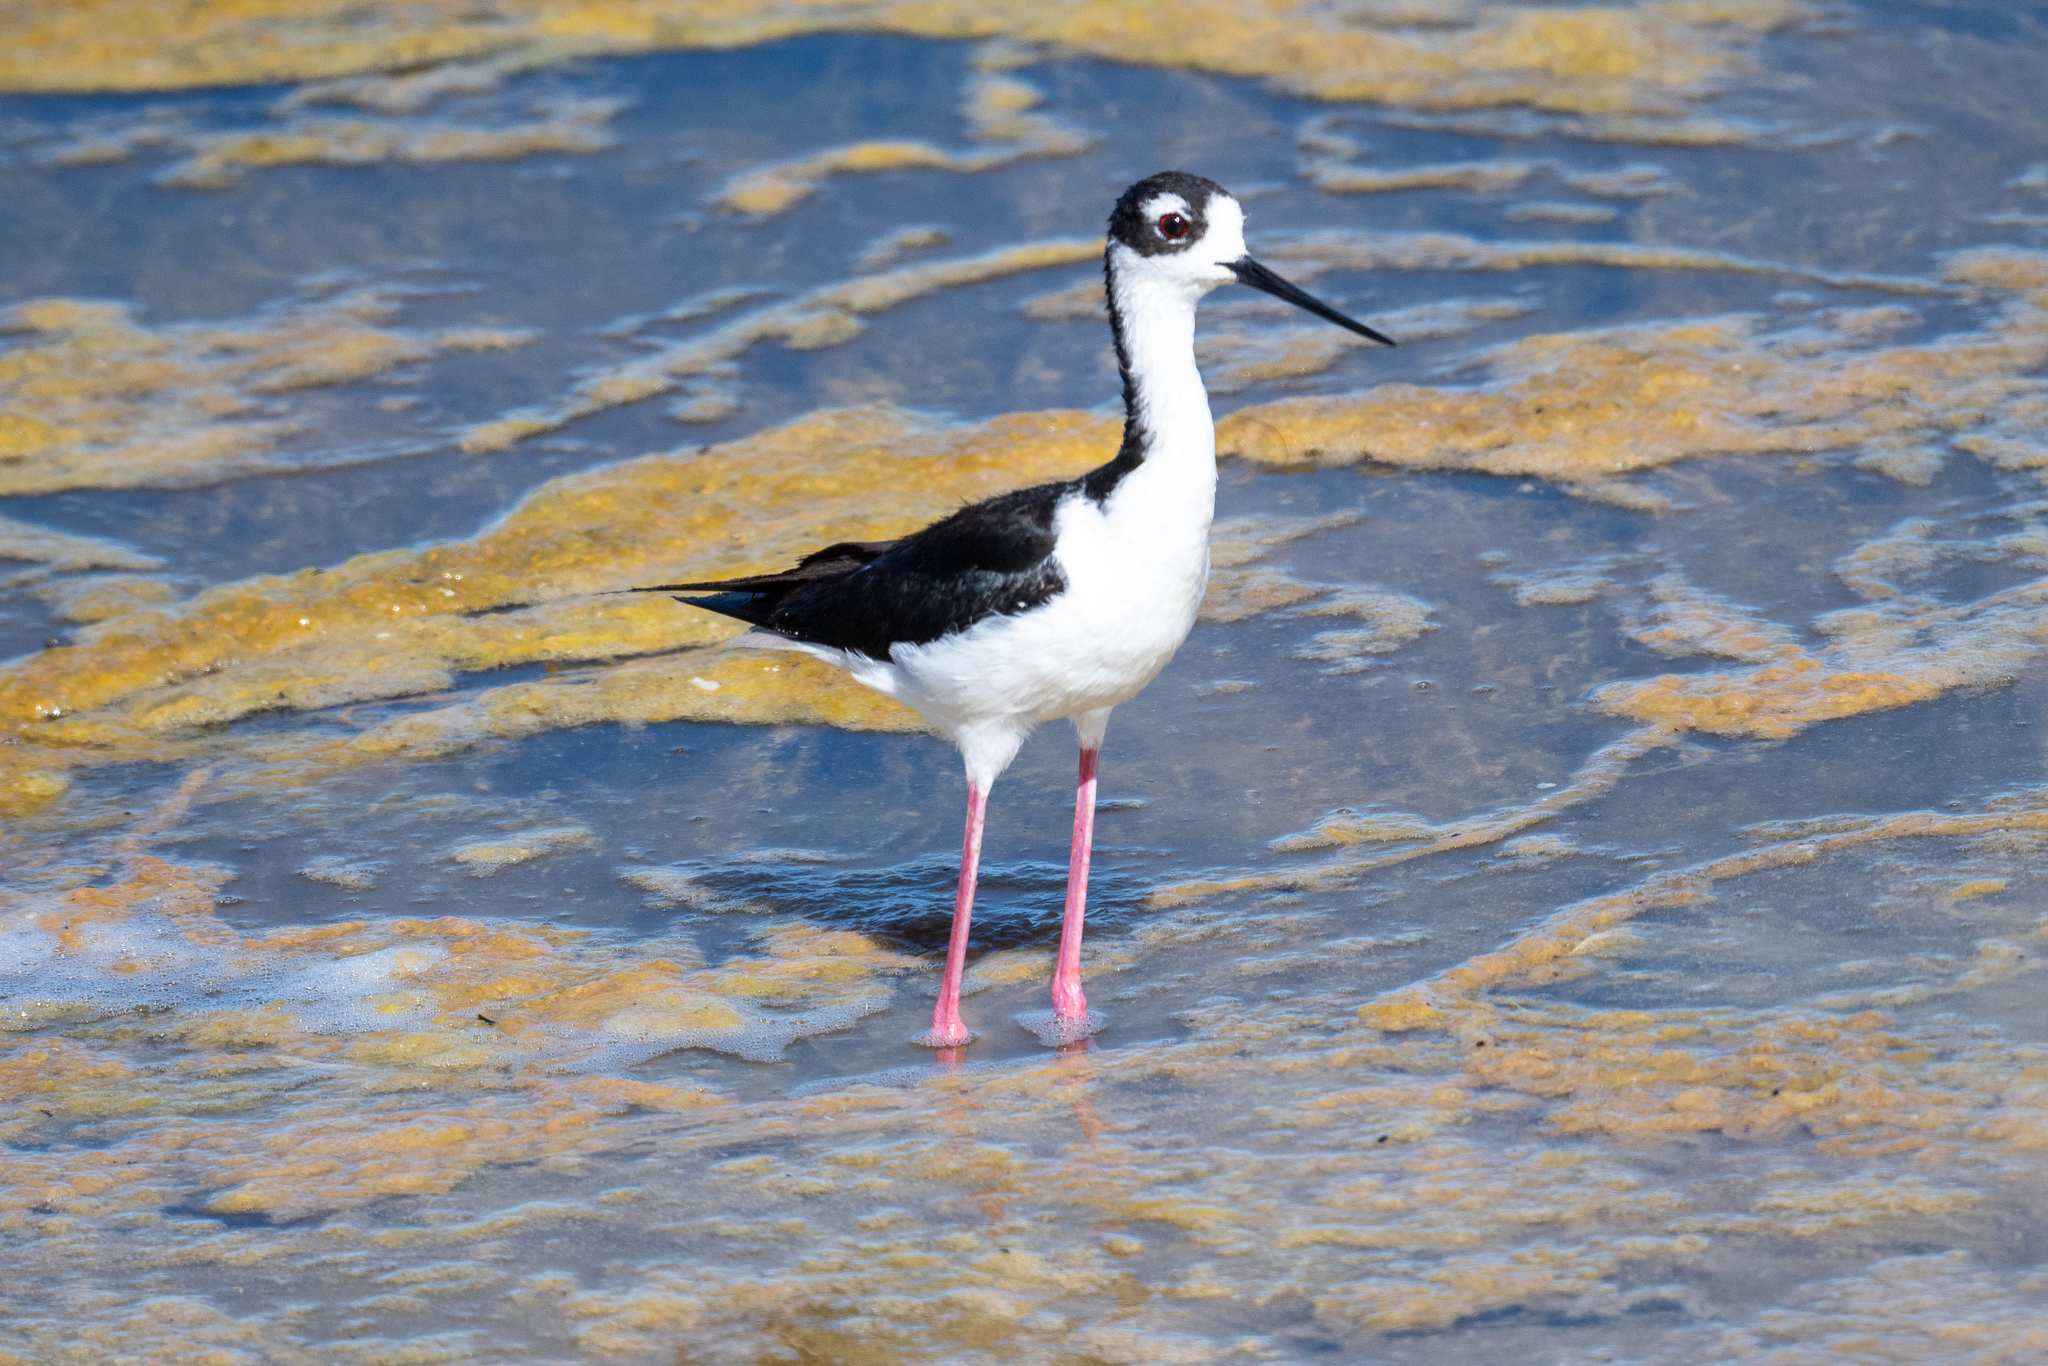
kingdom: Animalia
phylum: Chordata
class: Aves
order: Charadriiformes
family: Recurvirostridae
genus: Himantopus
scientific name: Himantopus mexicanus
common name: Black-necked stilt
